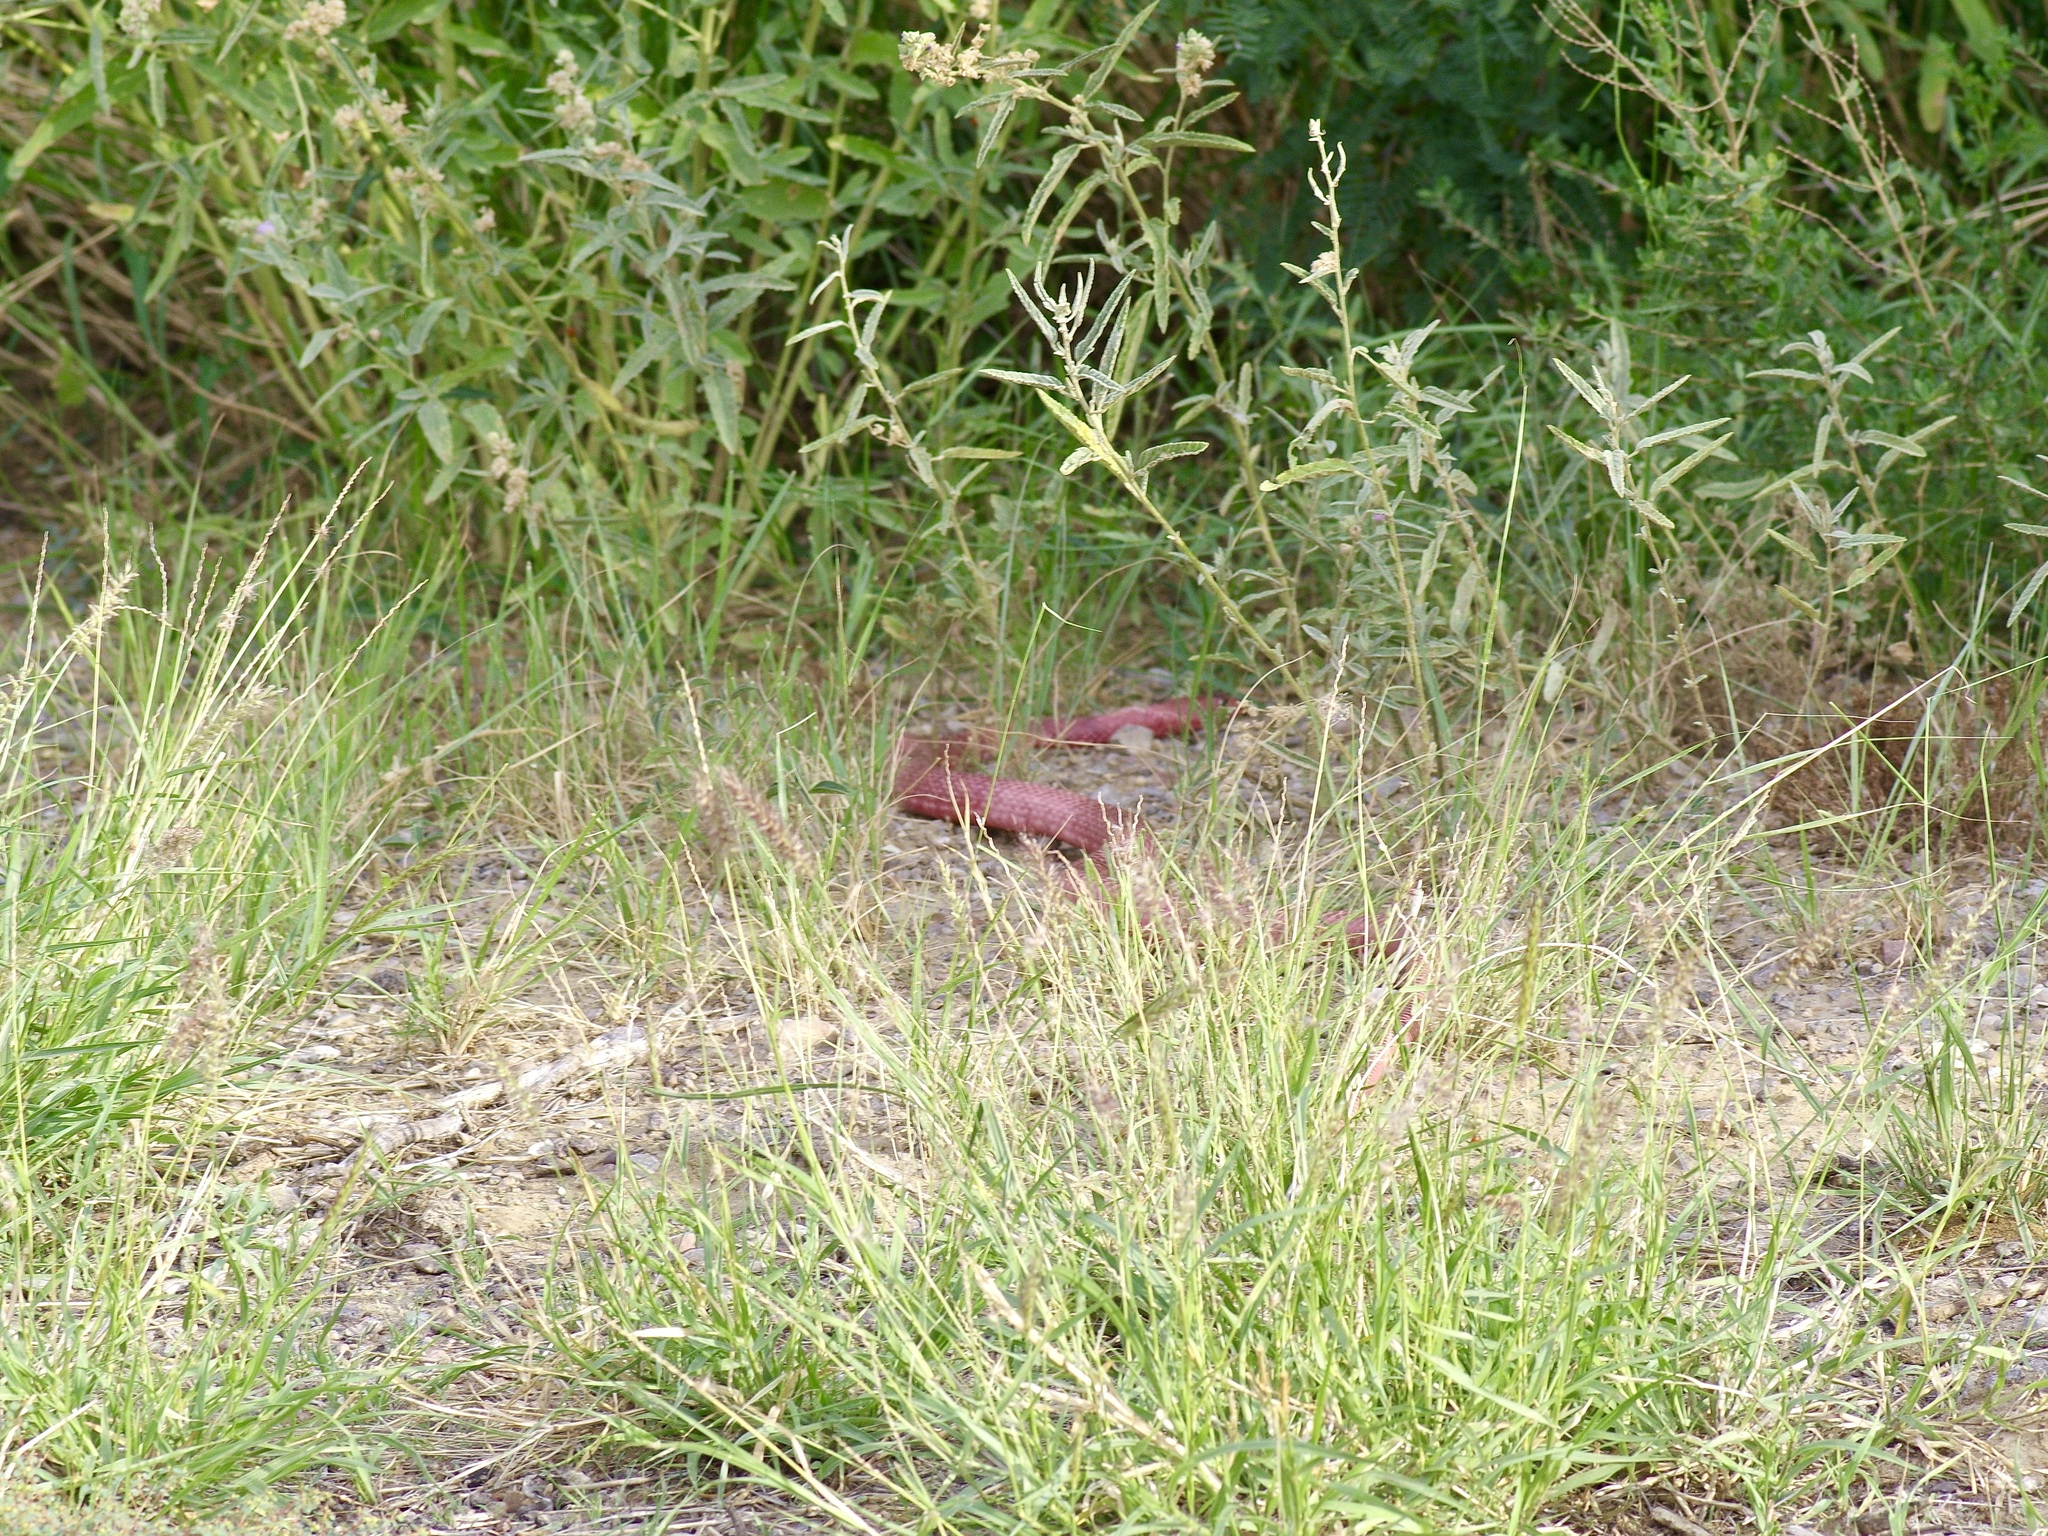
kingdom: Animalia
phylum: Chordata
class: Squamata
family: Colubridae
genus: Masticophis
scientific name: Masticophis flagellum
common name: Coachwhip
